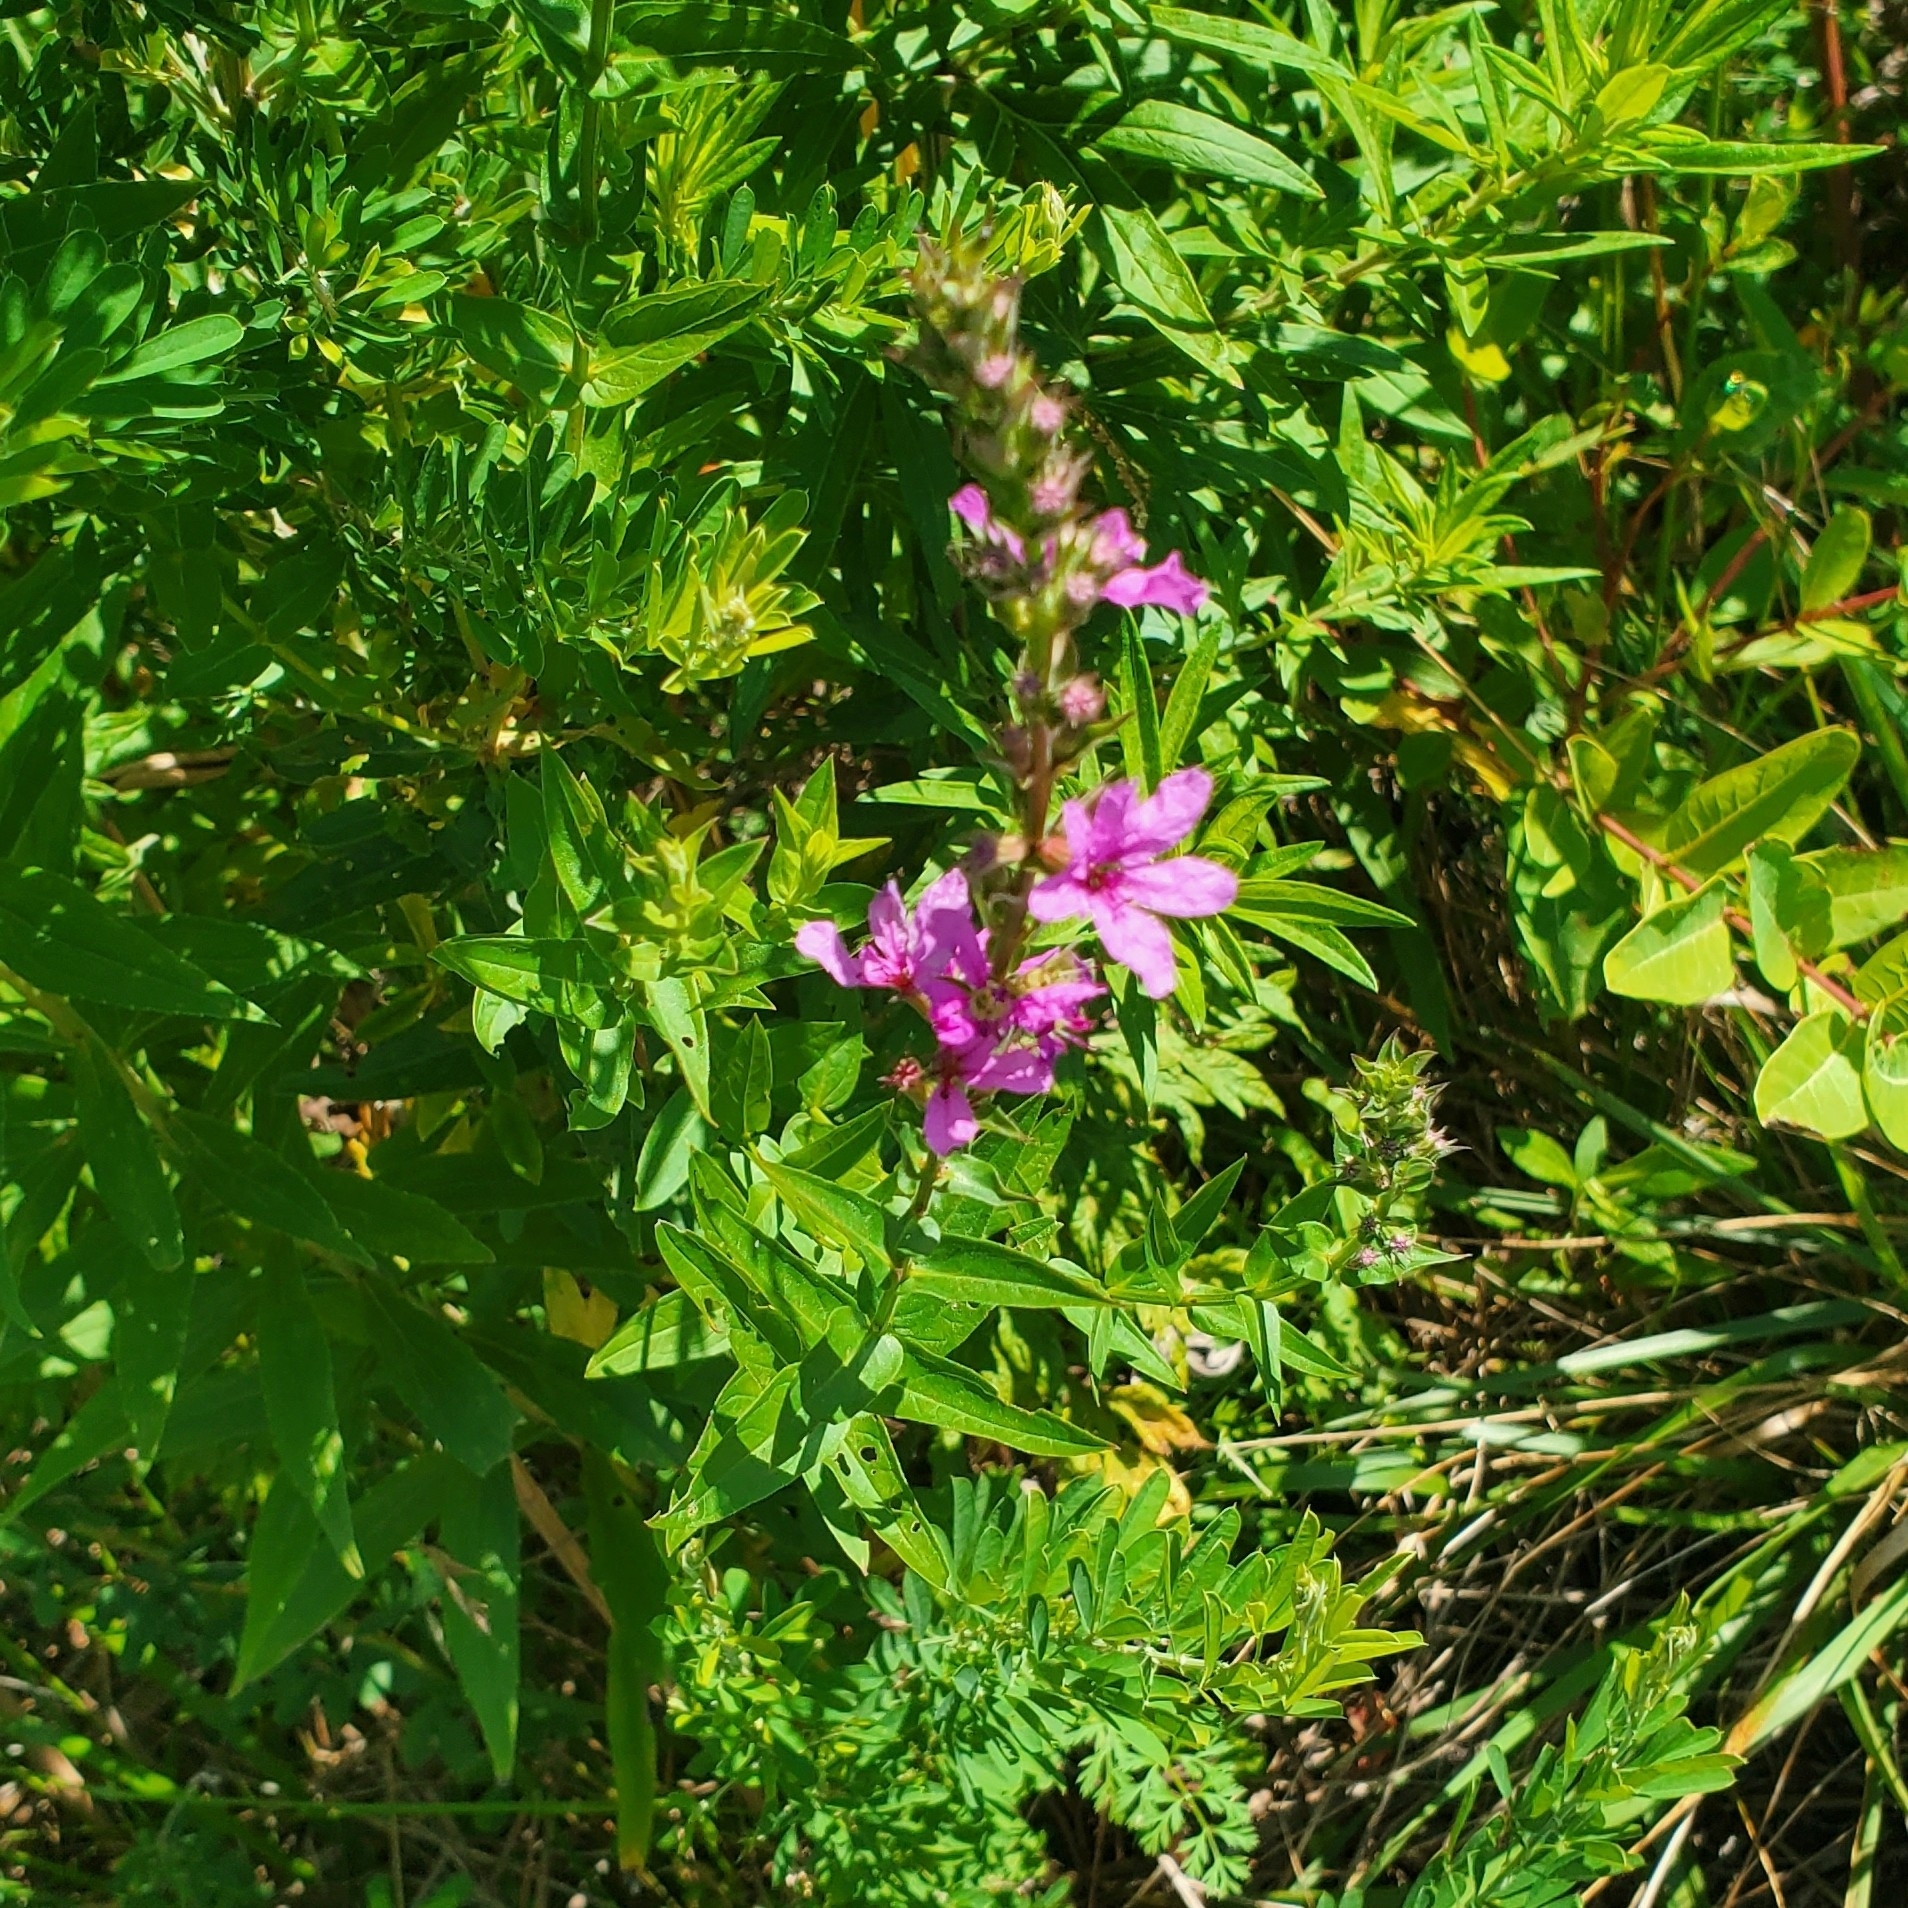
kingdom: Plantae
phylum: Tracheophyta
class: Magnoliopsida
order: Myrtales
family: Lythraceae
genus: Lythrum
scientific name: Lythrum salicaria
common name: Purple loosestrife
